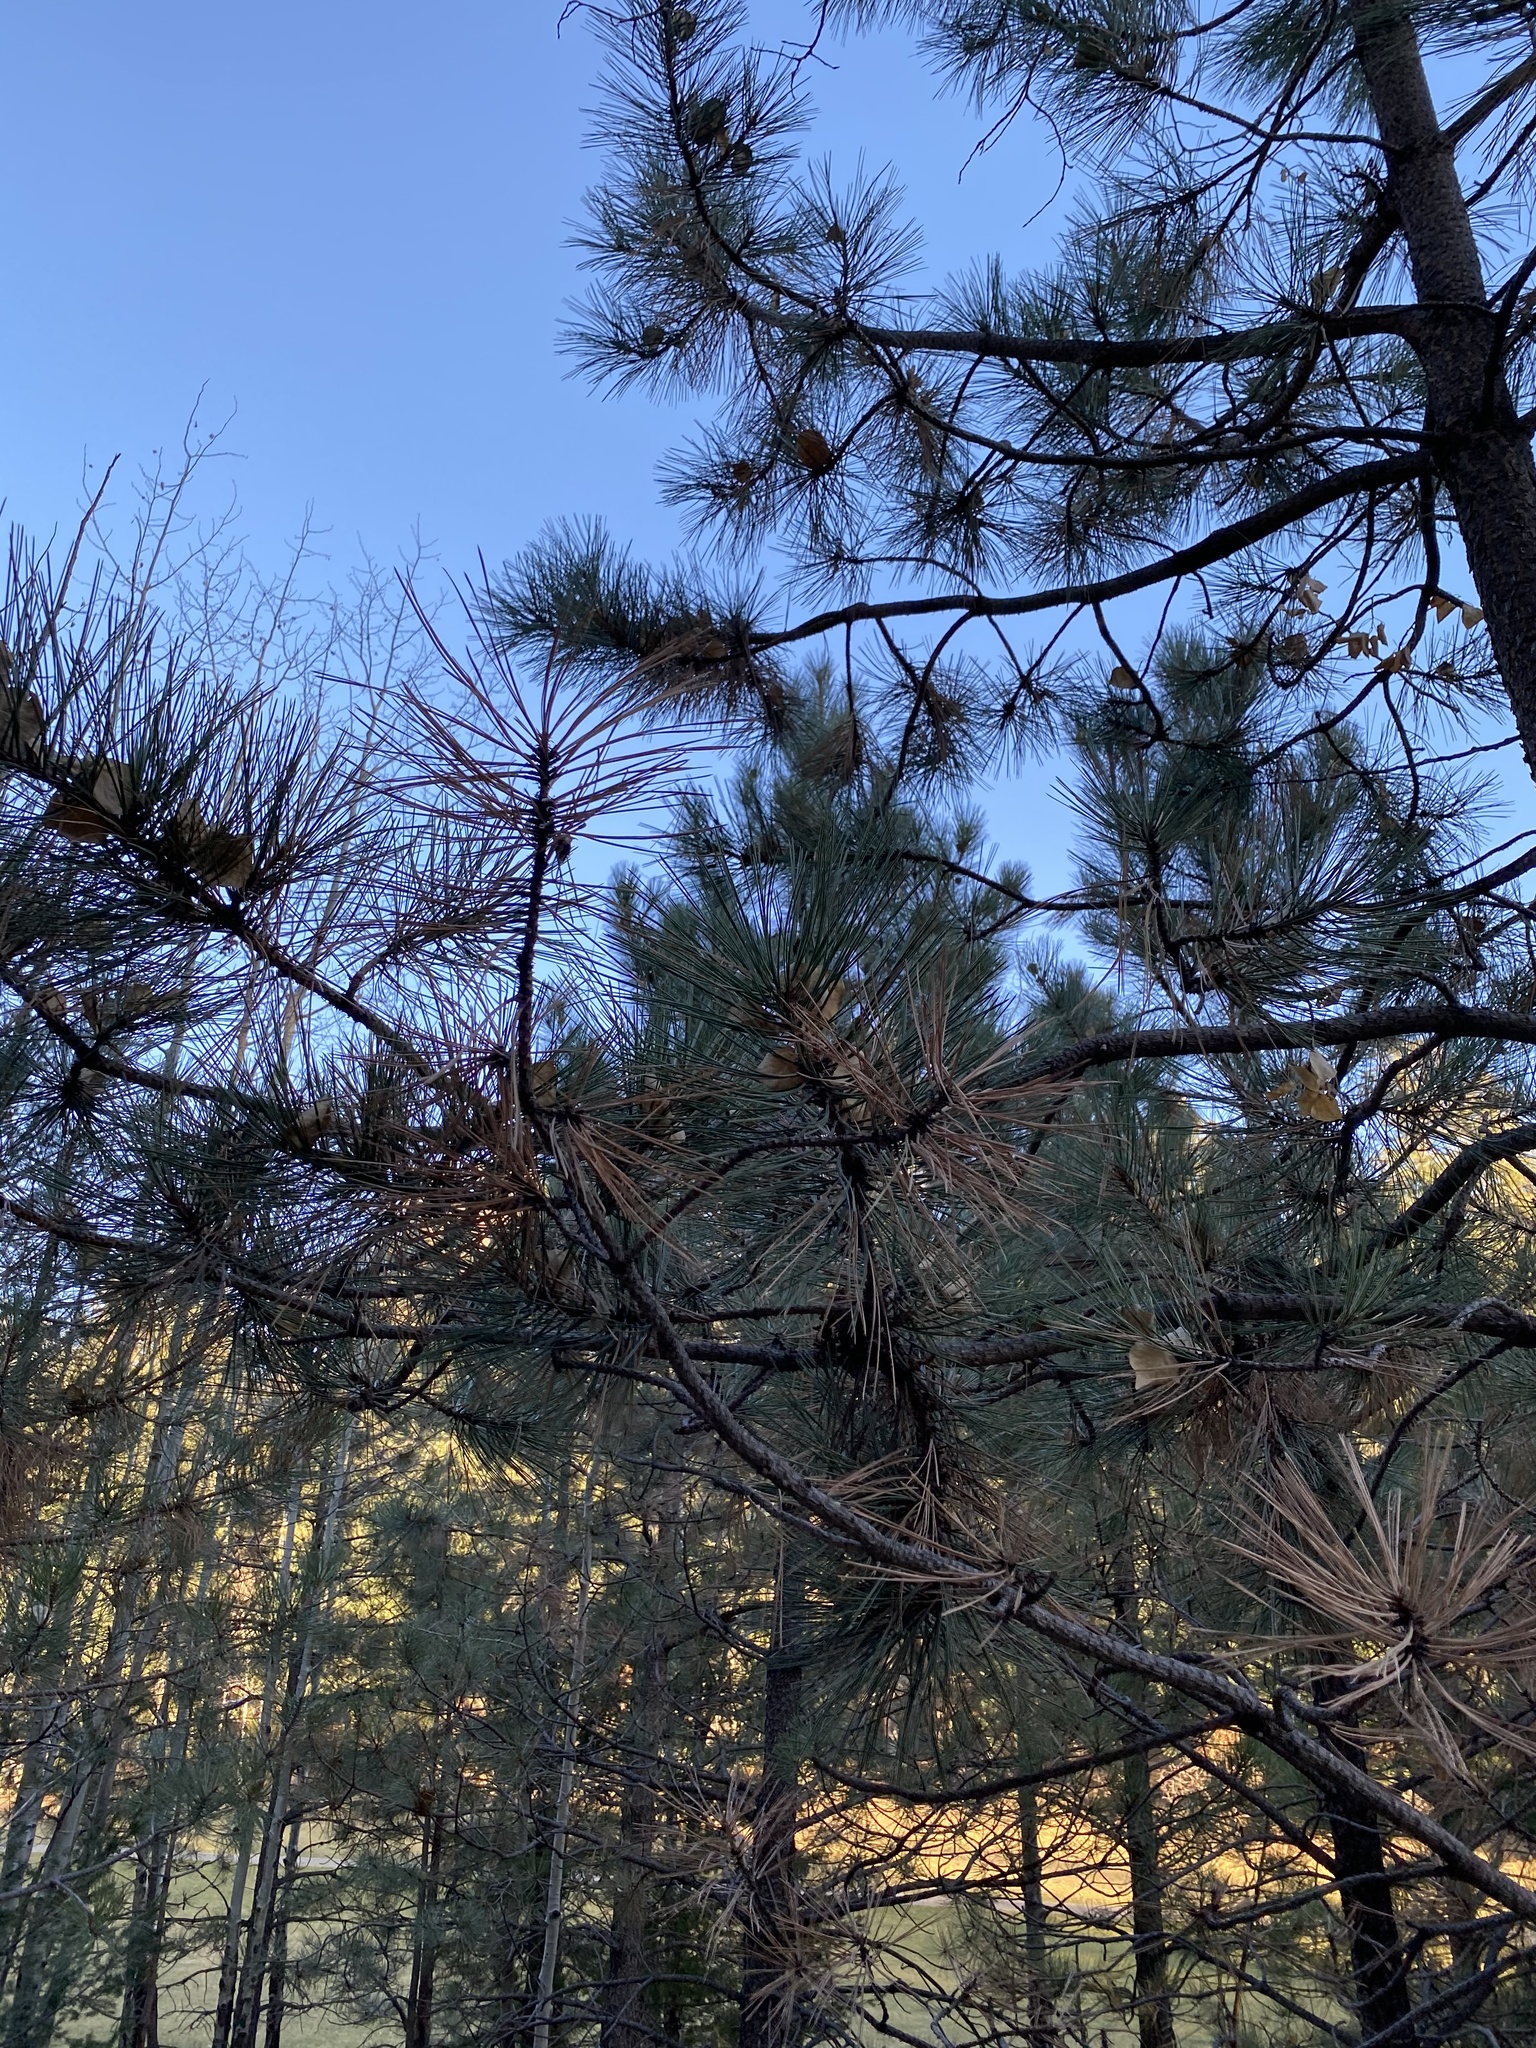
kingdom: Plantae
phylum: Tracheophyta
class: Pinopsida
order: Pinales
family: Pinaceae
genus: Pinus
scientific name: Pinus ponderosa
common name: Western yellow-pine
